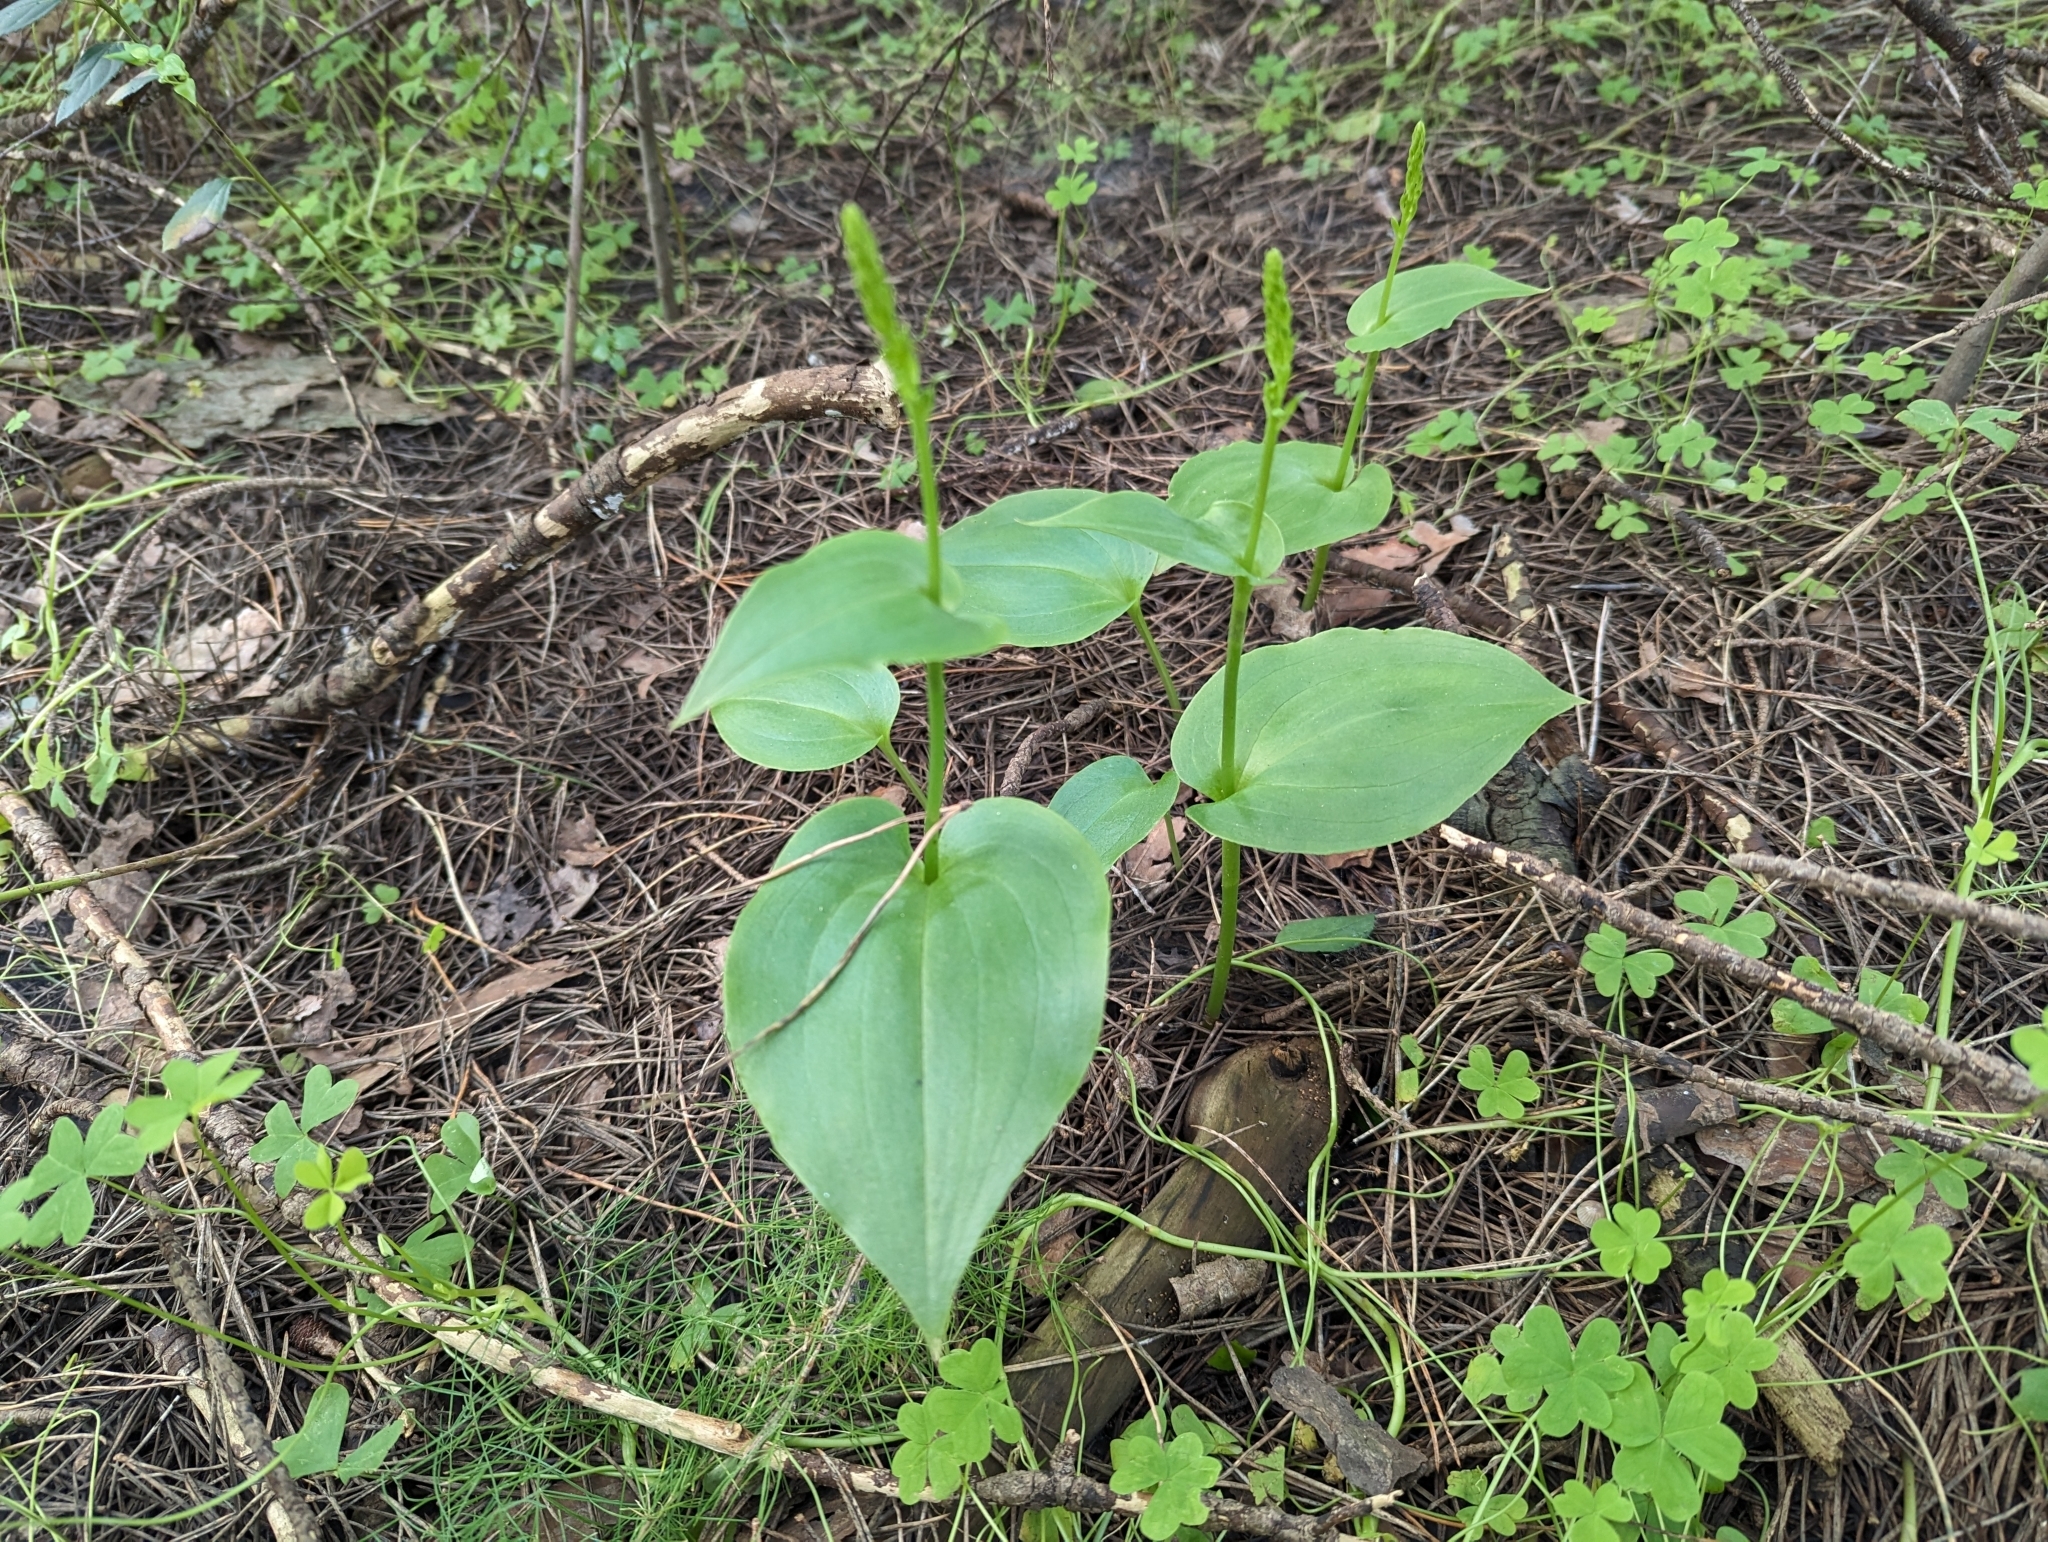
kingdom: Plantae
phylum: Tracheophyta
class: Liliopsida
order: Asparagales
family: Orchidaceae
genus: Gennaria
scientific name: Gennaria diphylla
